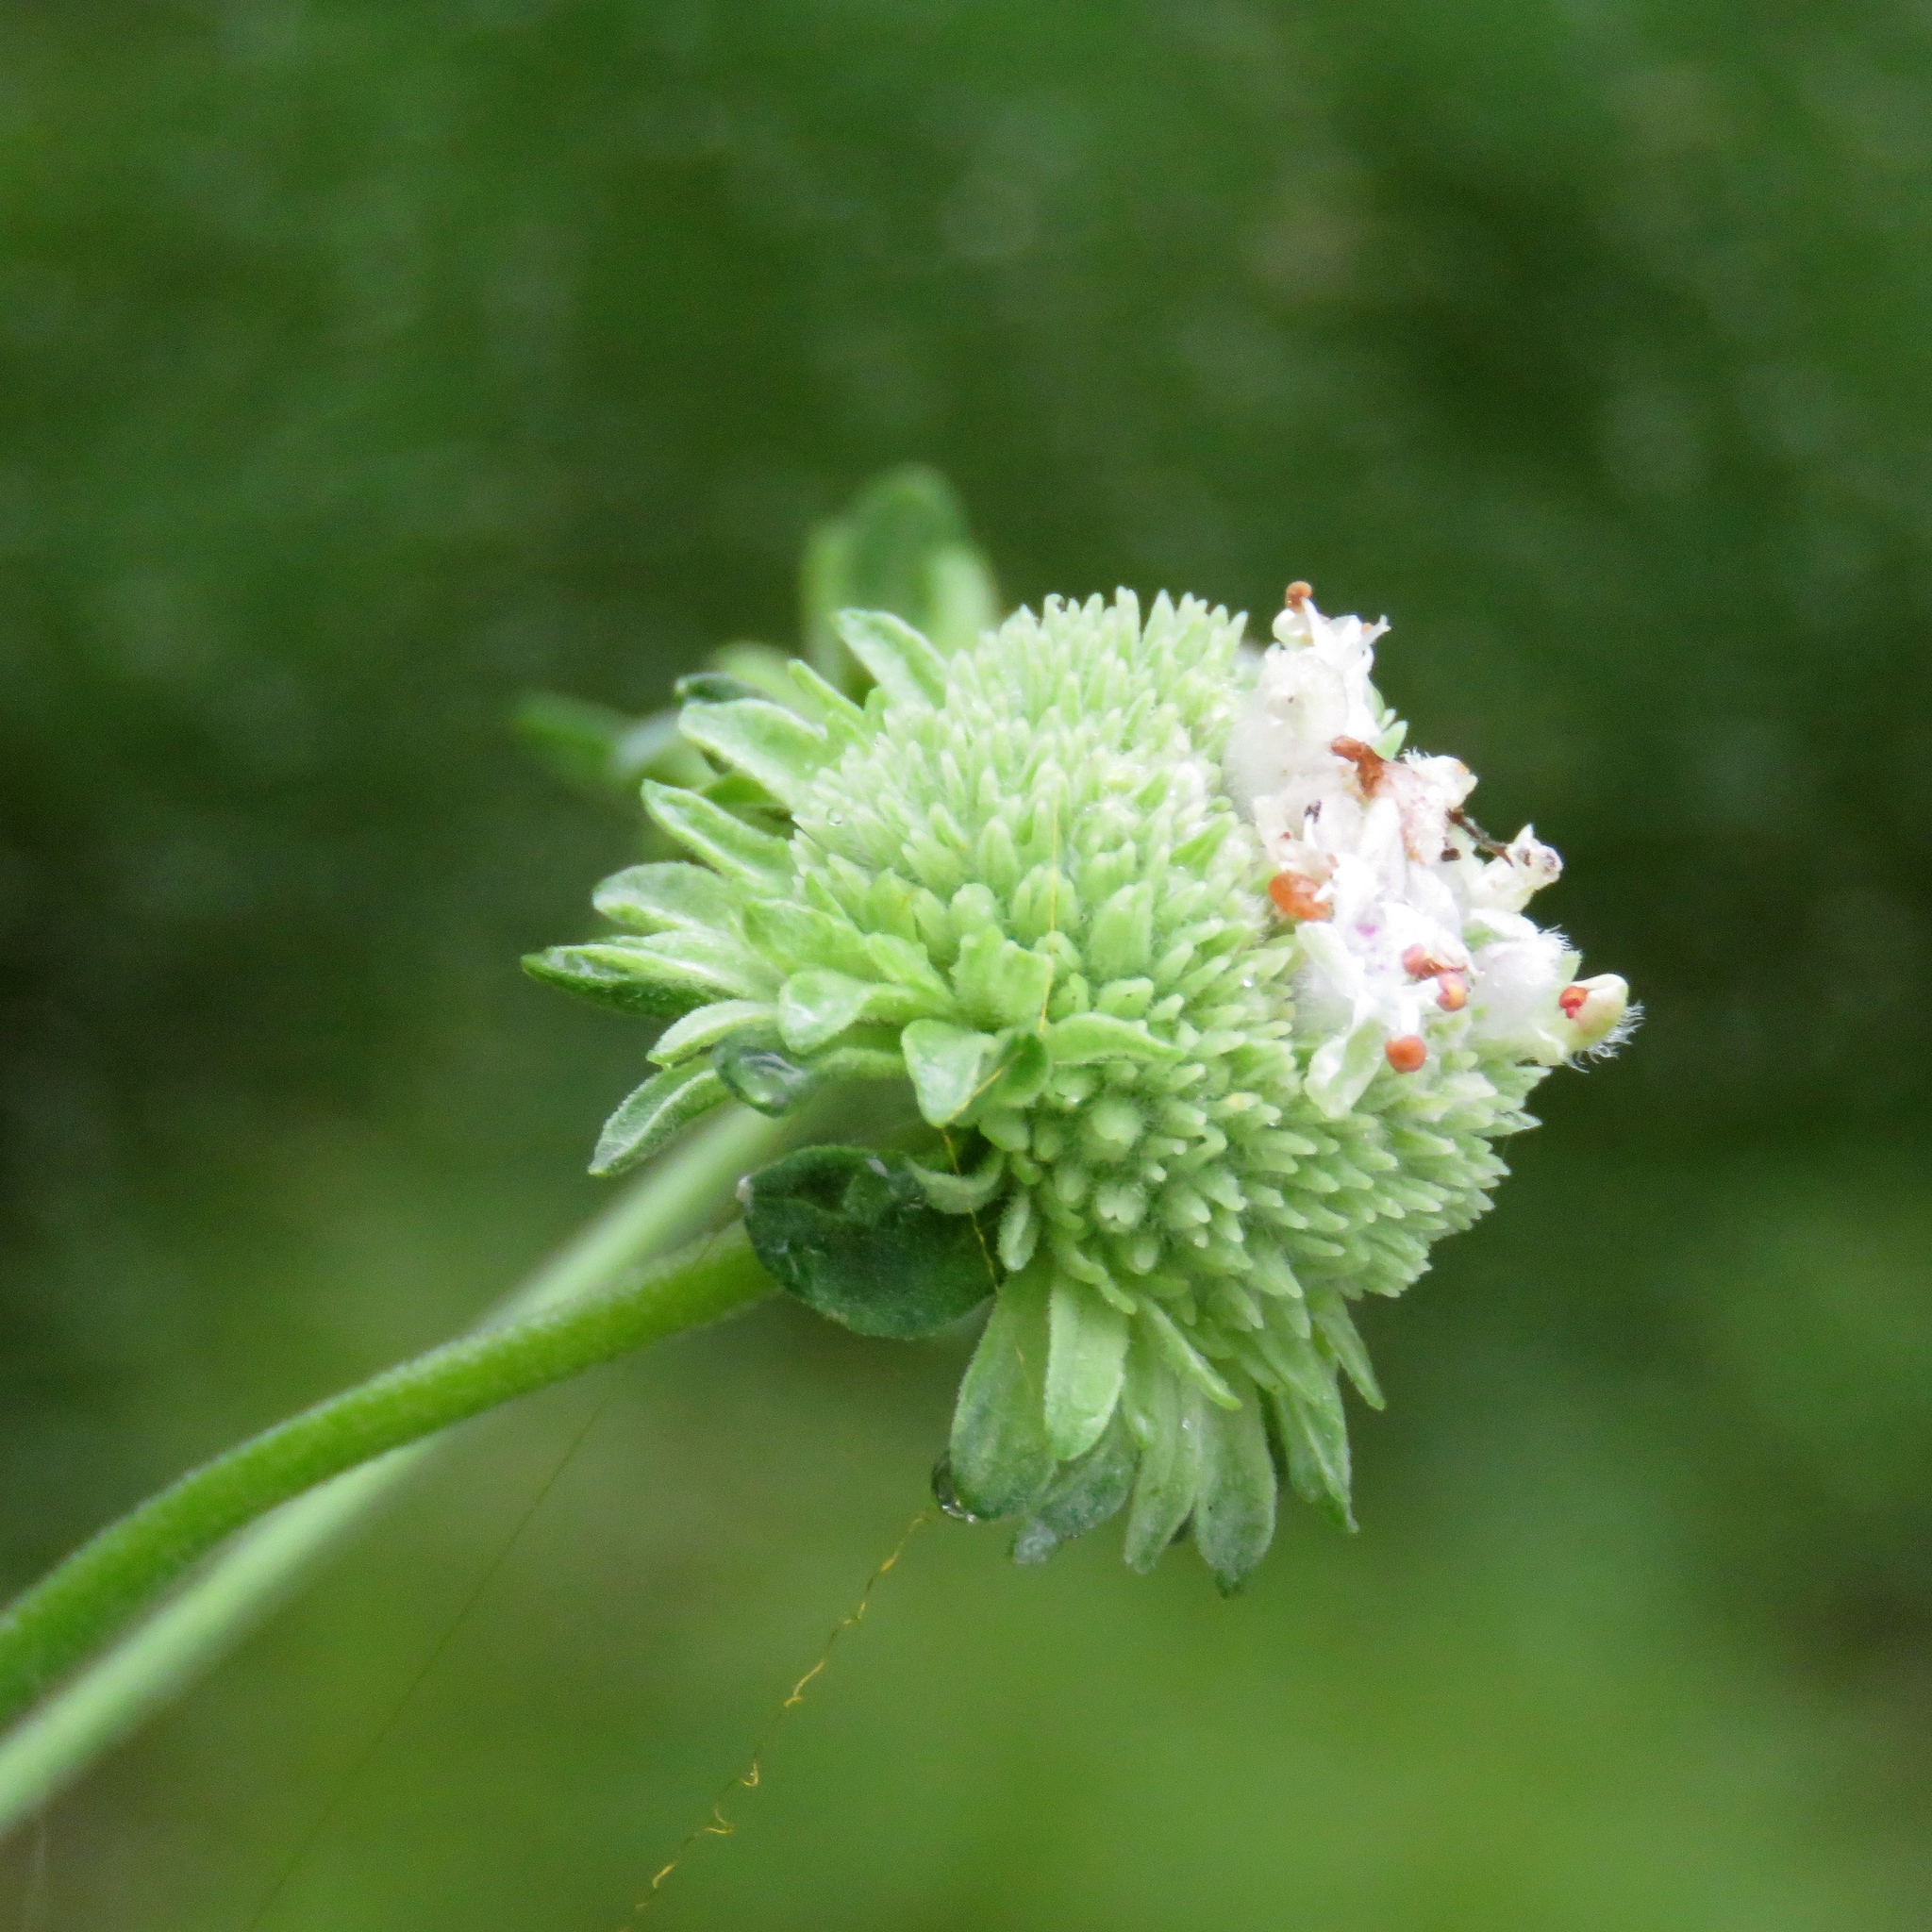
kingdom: Plantae
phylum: Tracheophyta
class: Magnoliopsida
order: Lamiales
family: Lamiaceae
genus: Hyptis
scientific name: Hyptis alata
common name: Cluster bush-mint
